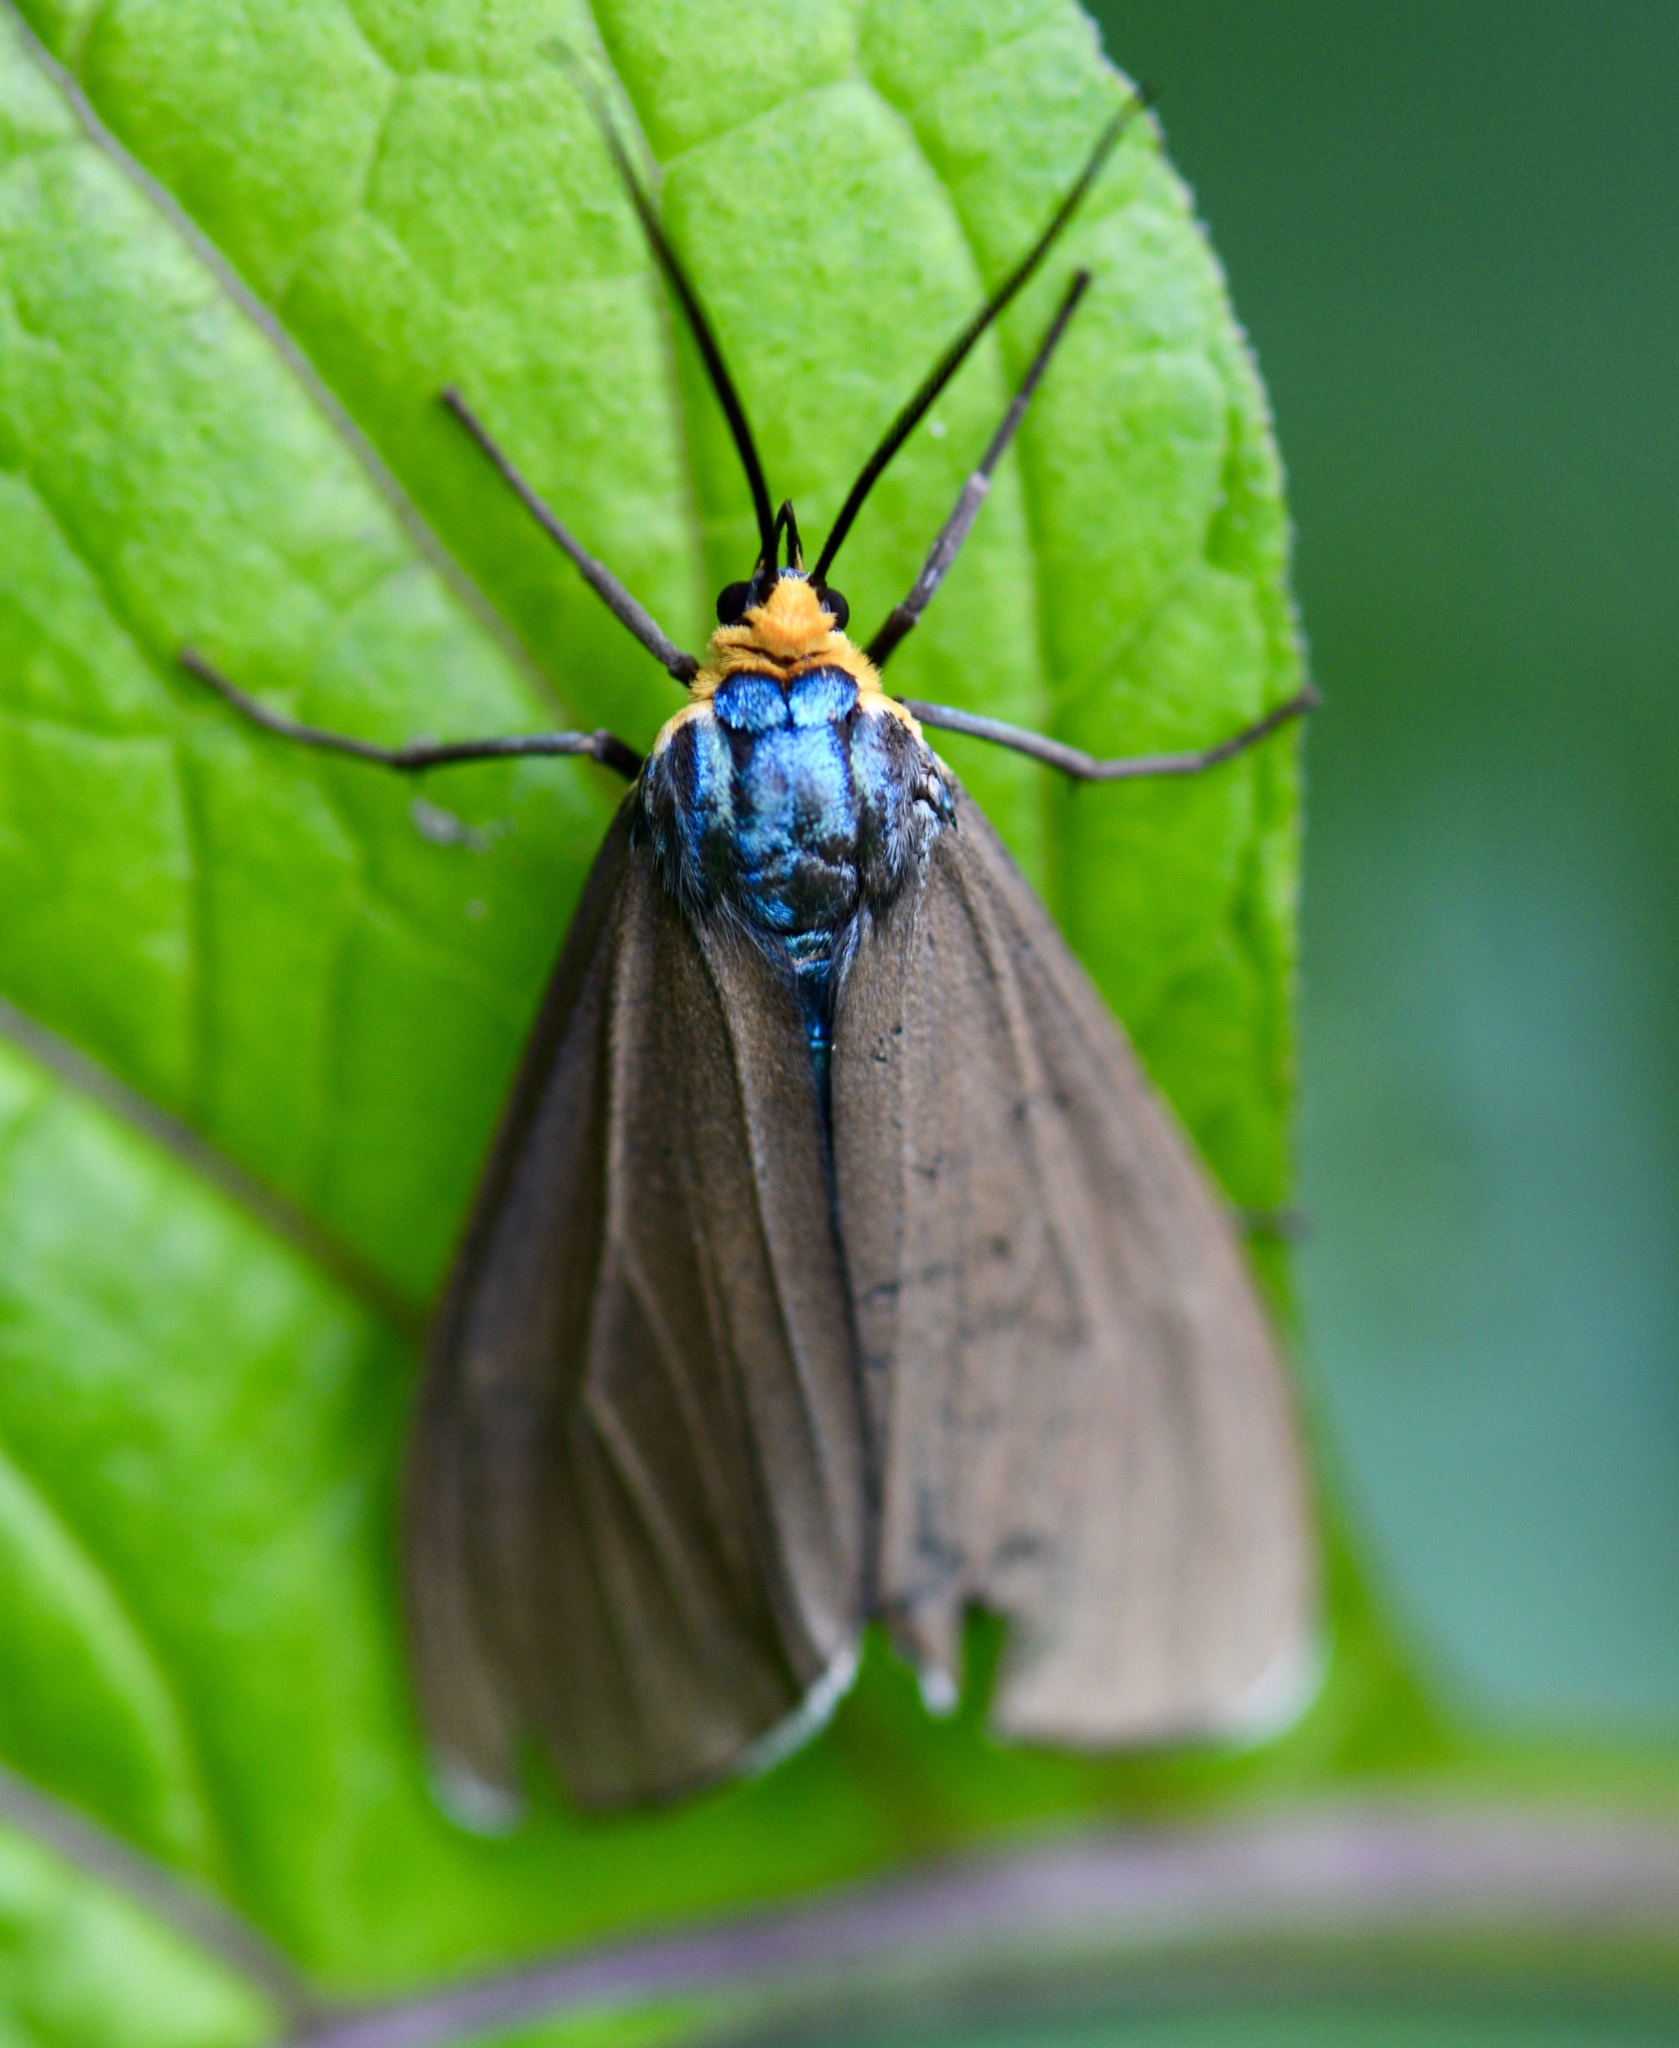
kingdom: Animalia
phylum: Arthropoda
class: Insecta
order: Lepidoptera
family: Erebidae
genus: Ctenucha
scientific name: Ctenucha virginica
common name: Virginia ctenucha moth
